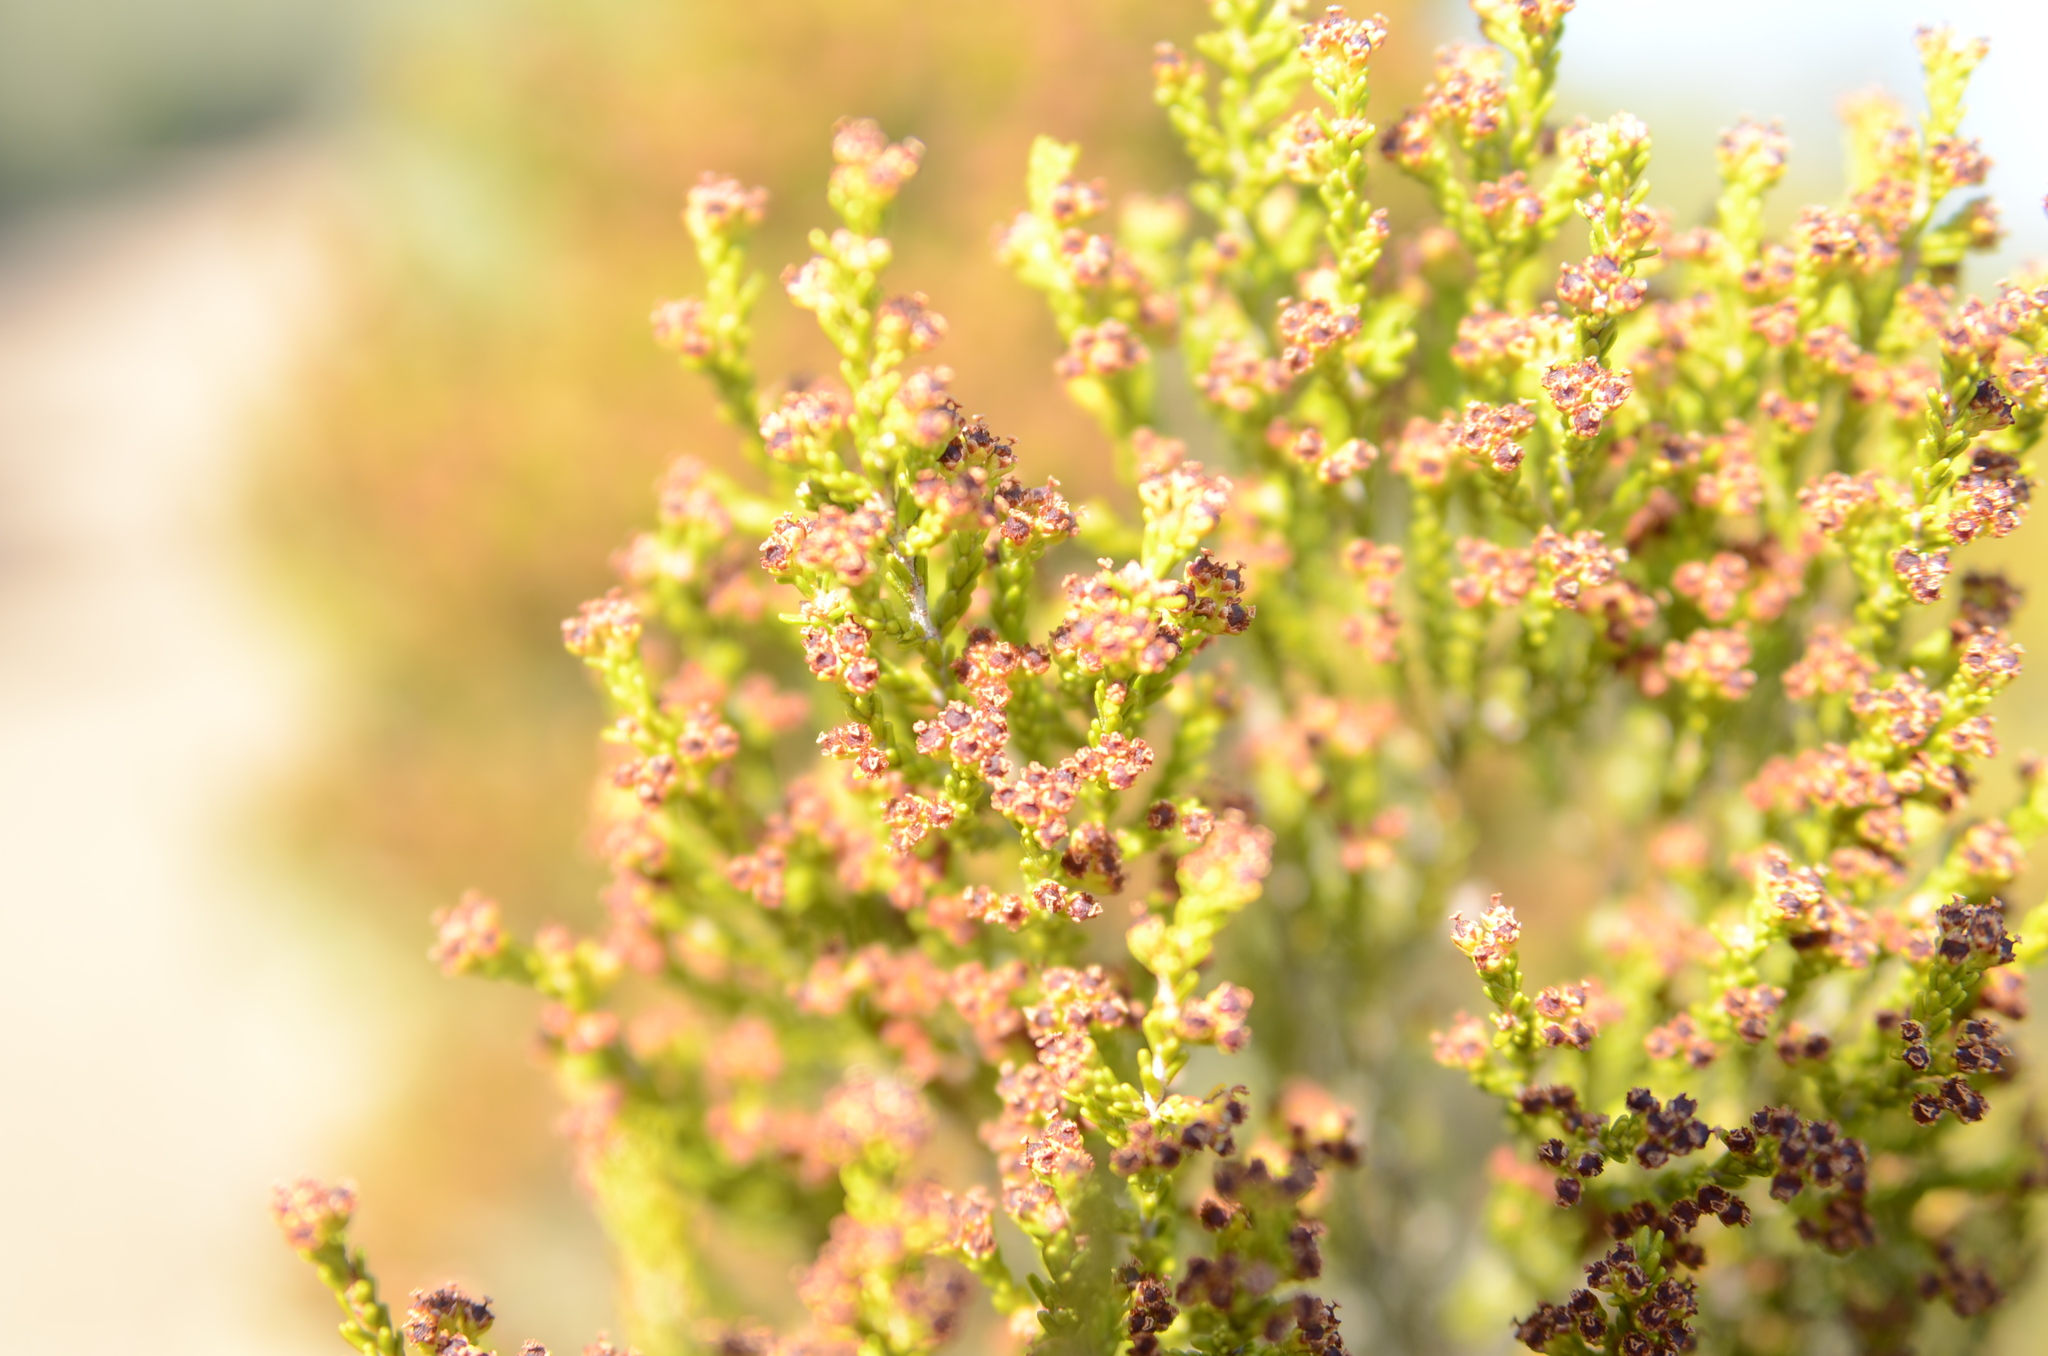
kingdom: Plantae
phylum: Tracheophyta
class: Magnoliopsida
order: Ericales
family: Ericaceae
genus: Erica
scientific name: Erica tristis
